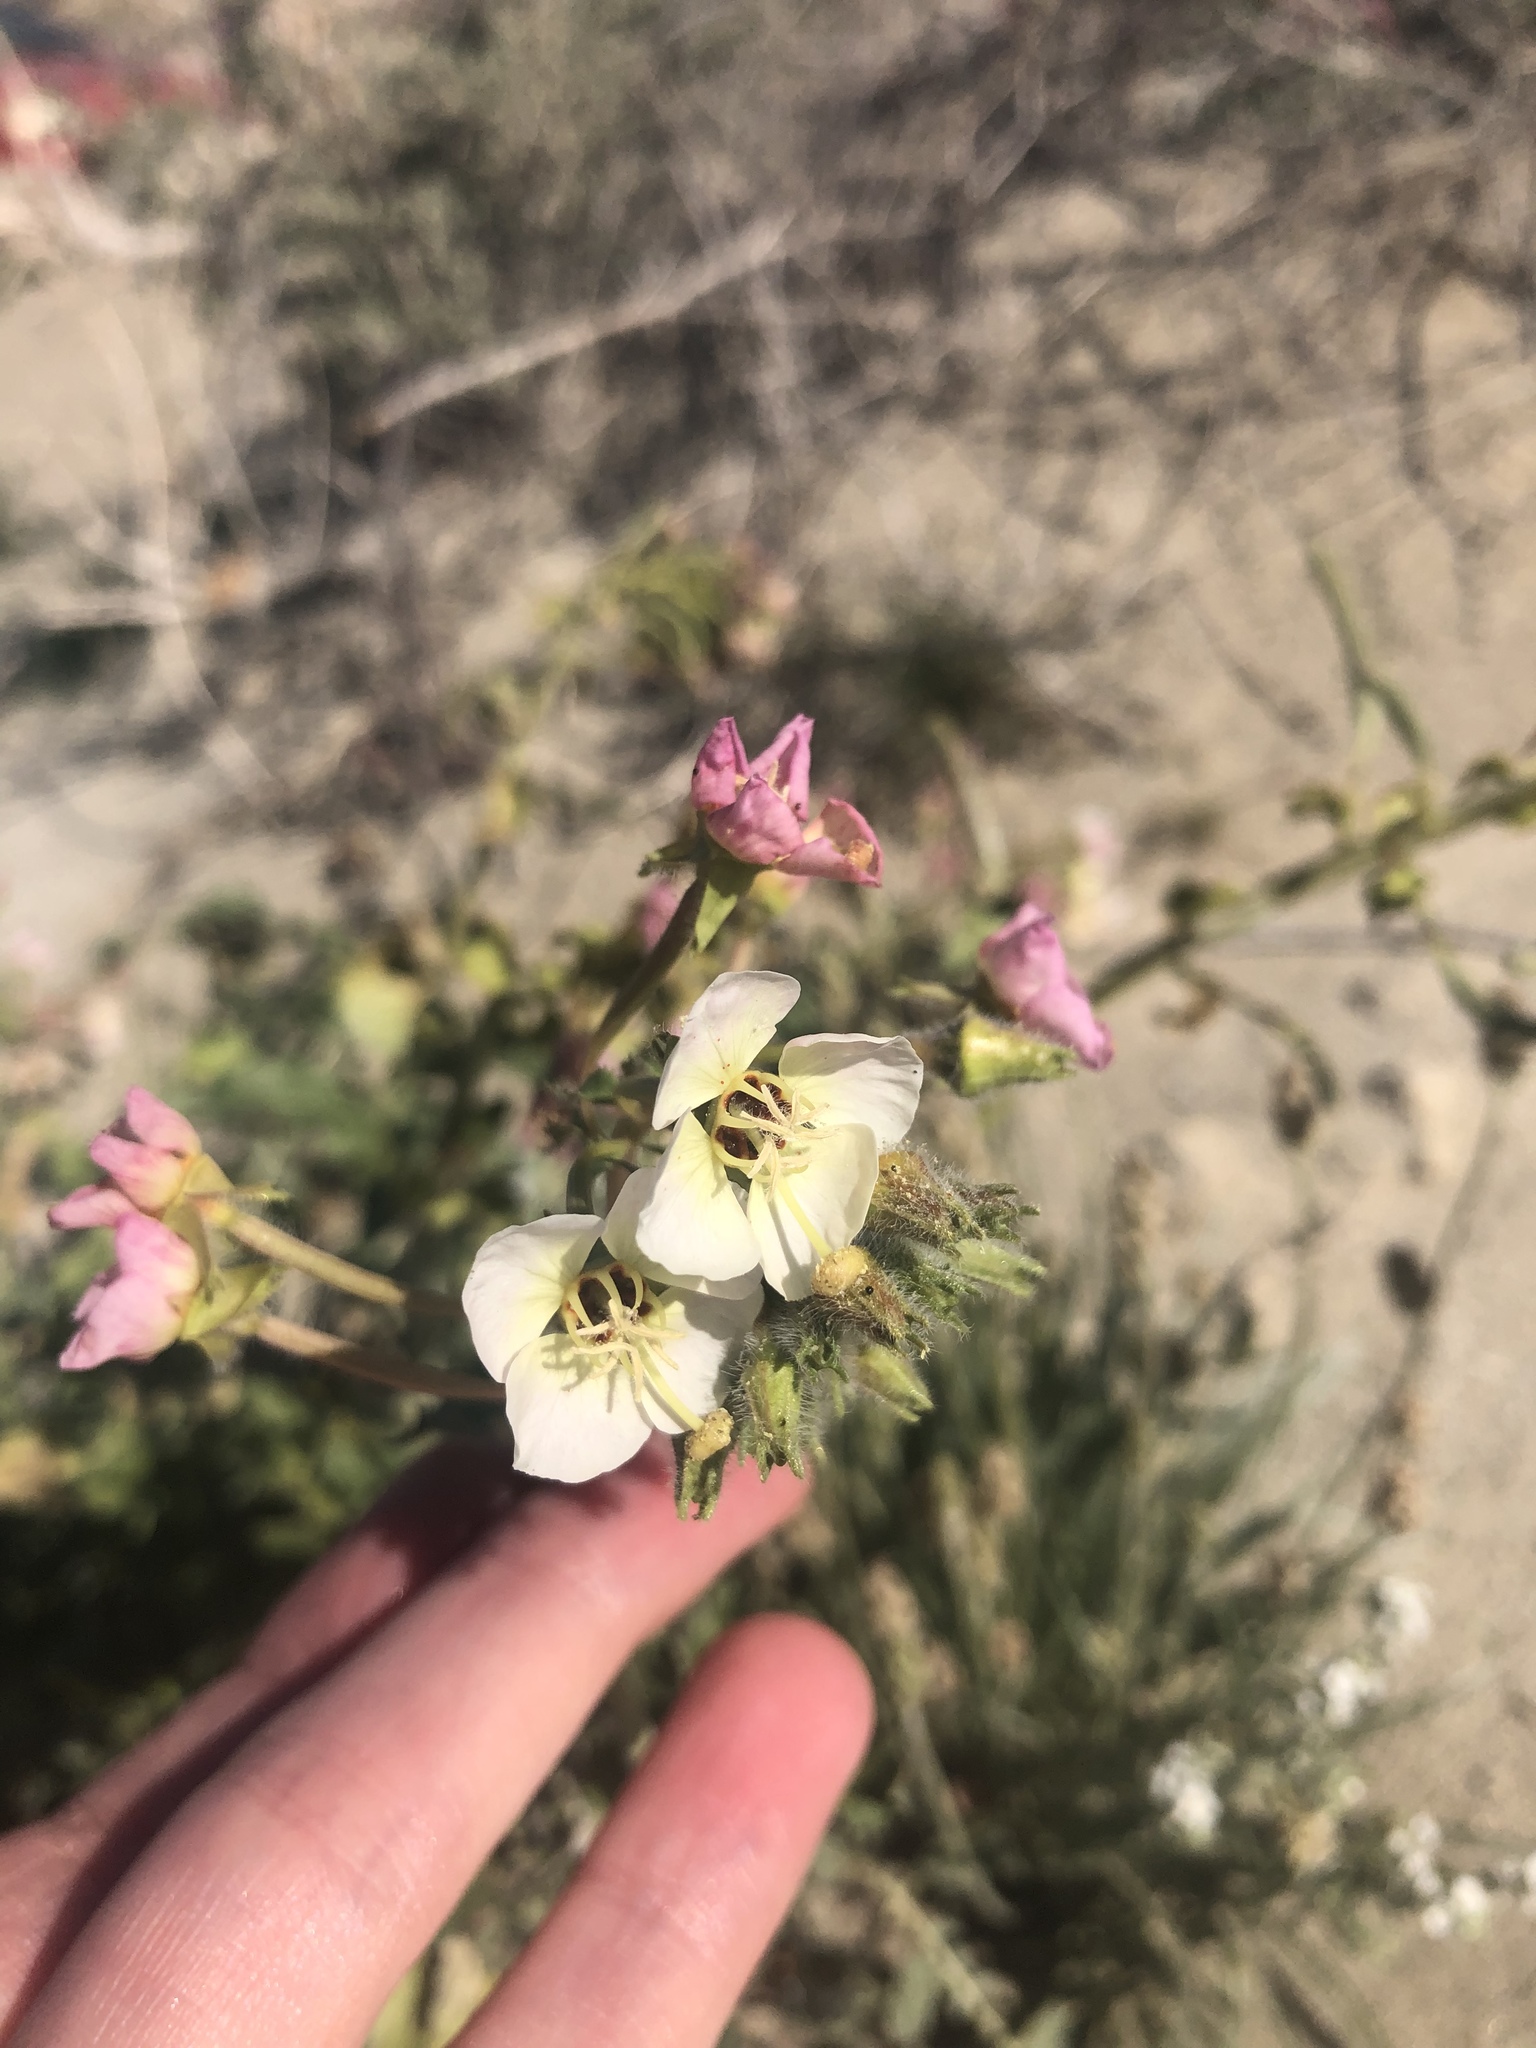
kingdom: Plantae
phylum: Tracheophyta
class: Magnoliopsida
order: Myrtales
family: Onagraceae
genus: Chylismia
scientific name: Chylismia claviformis
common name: Browneyes
